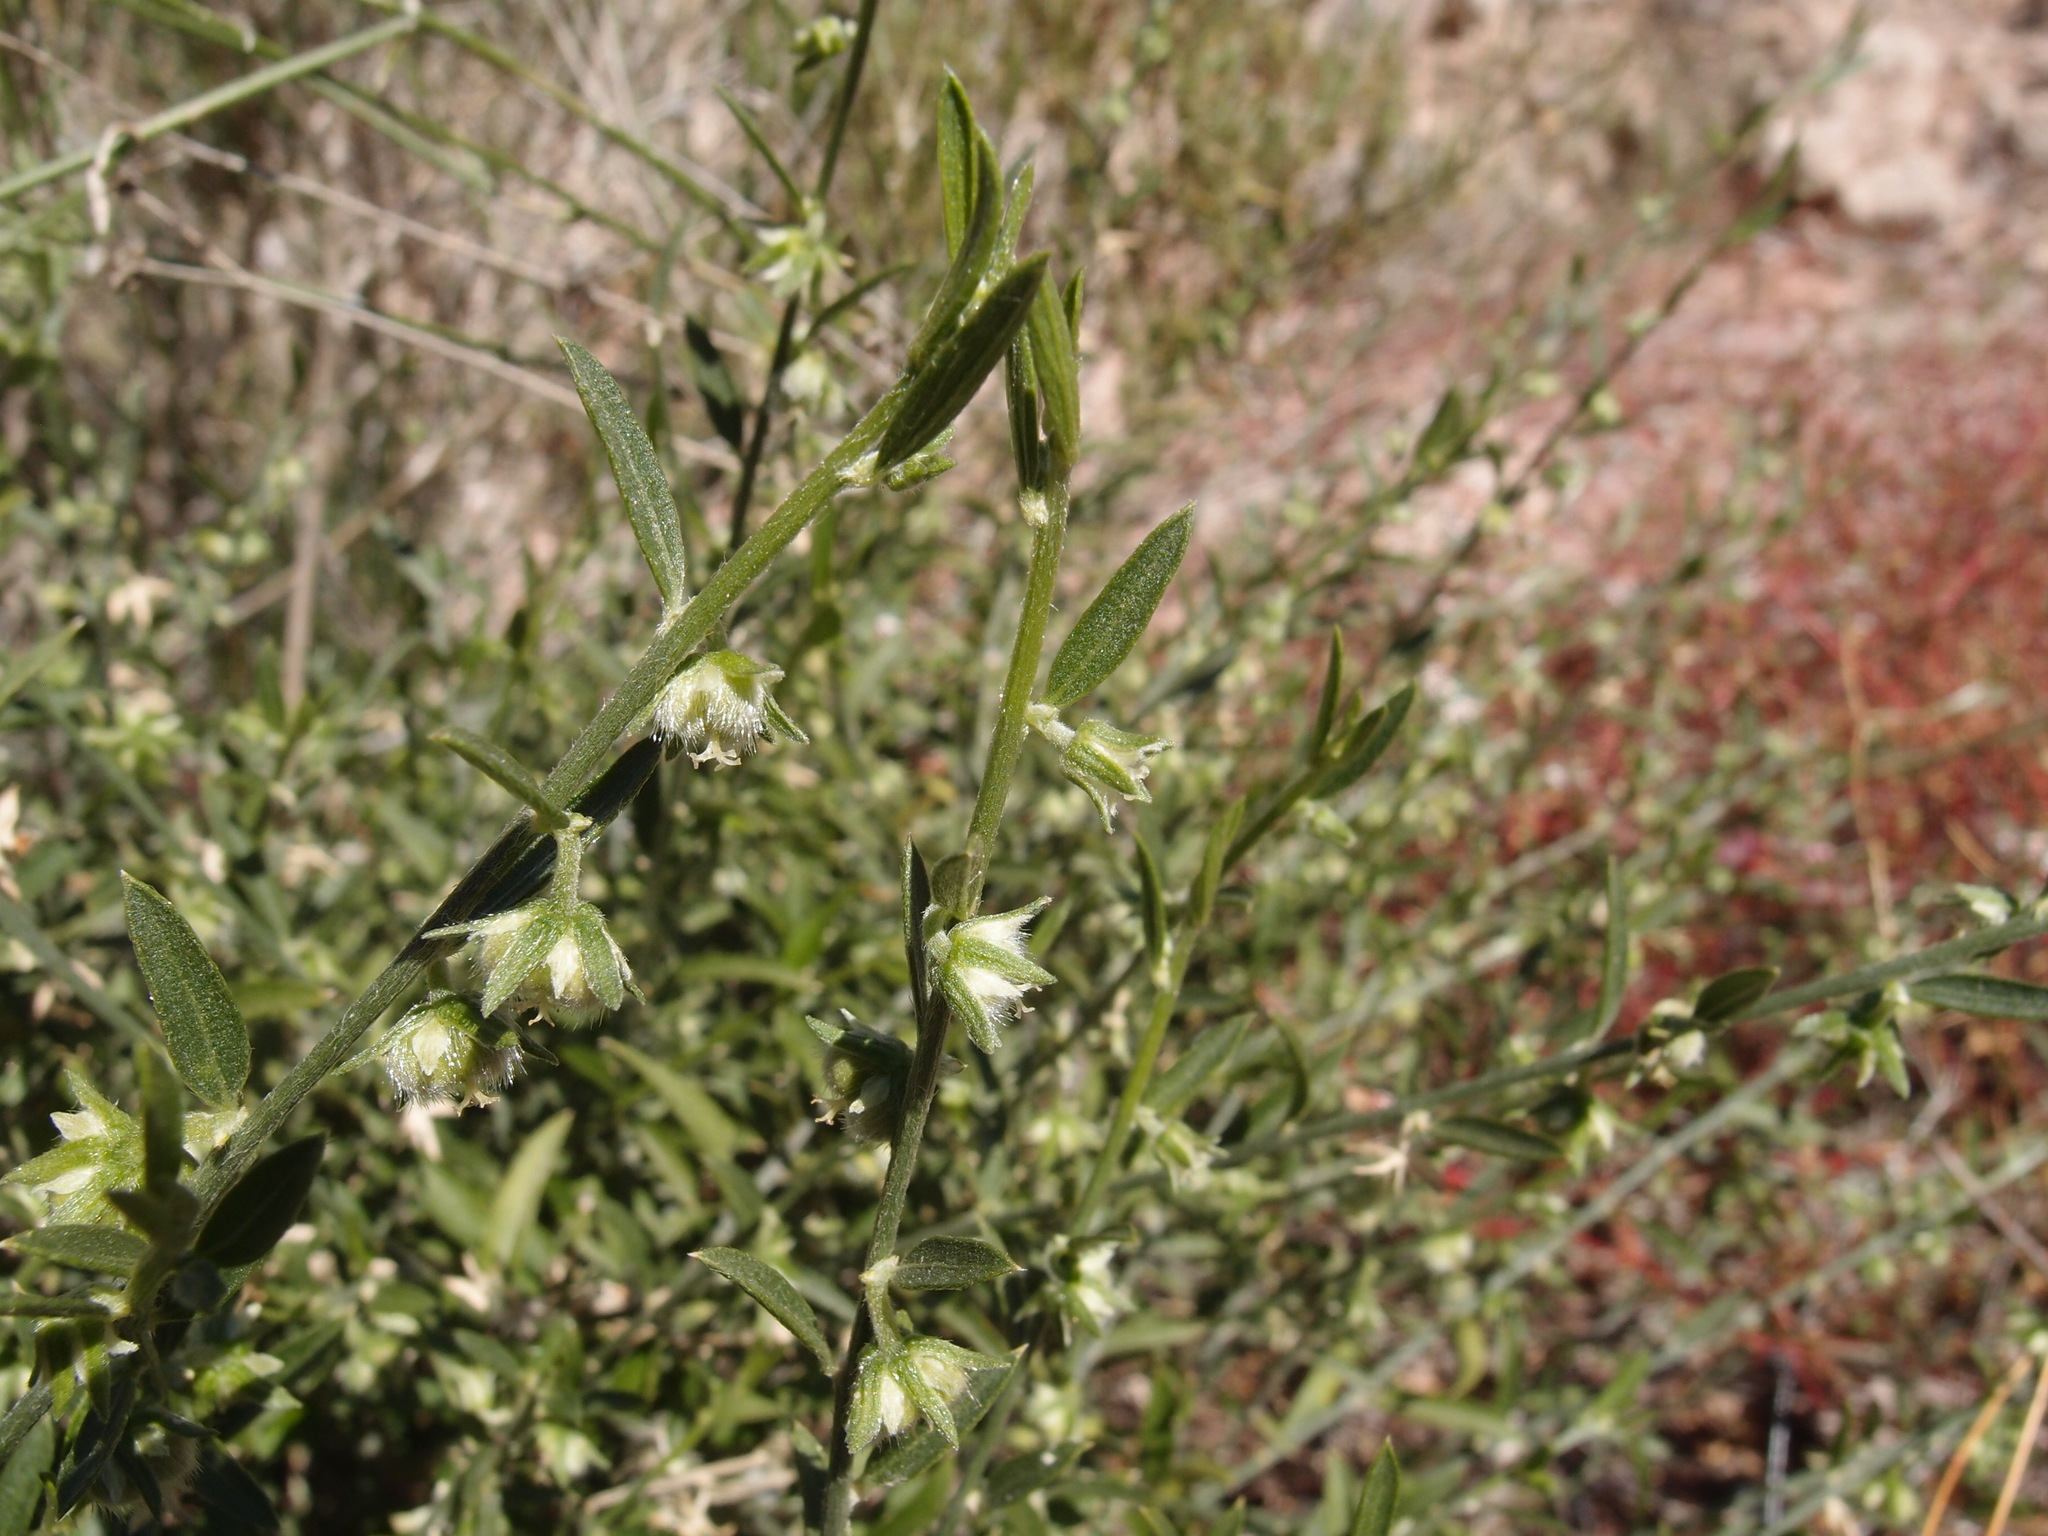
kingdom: Plantae
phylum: Tracheophyta
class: Magnoliopsida
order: Malpighiales
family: Euphorbiaceae
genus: Ditaxis
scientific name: Ditaxis lanceolata
